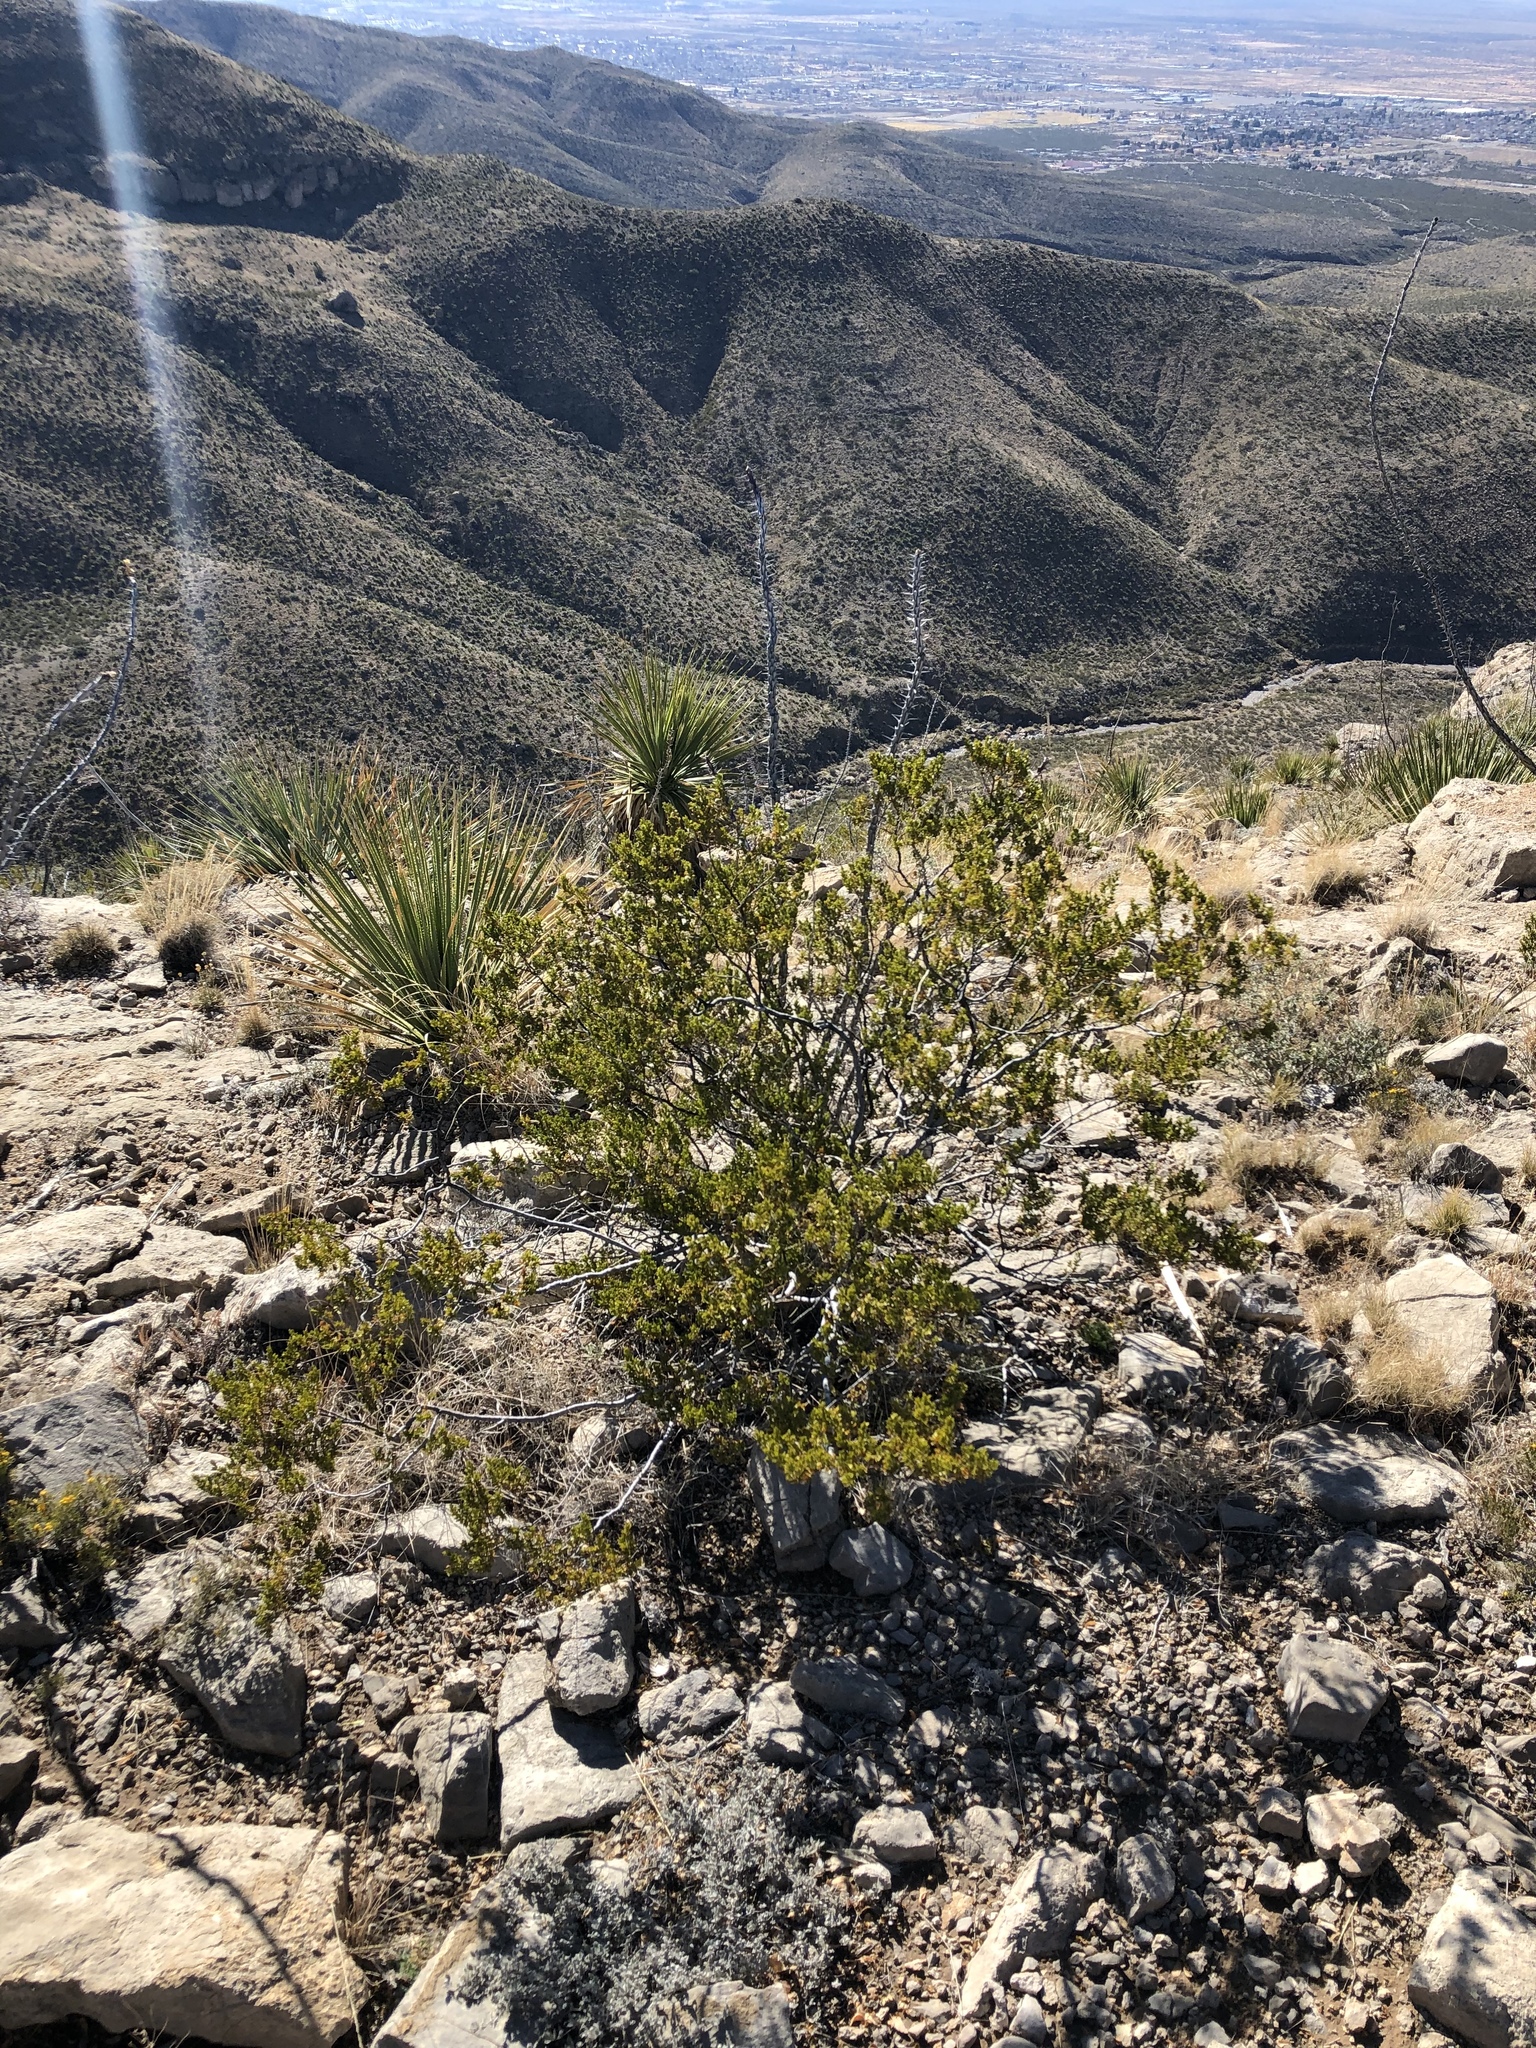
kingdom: Plantae
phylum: Tracheophyta
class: Magnoliopsida
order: Zygophyllales
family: Zygophyllaceae
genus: Larrea
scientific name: Larrea tridentata
